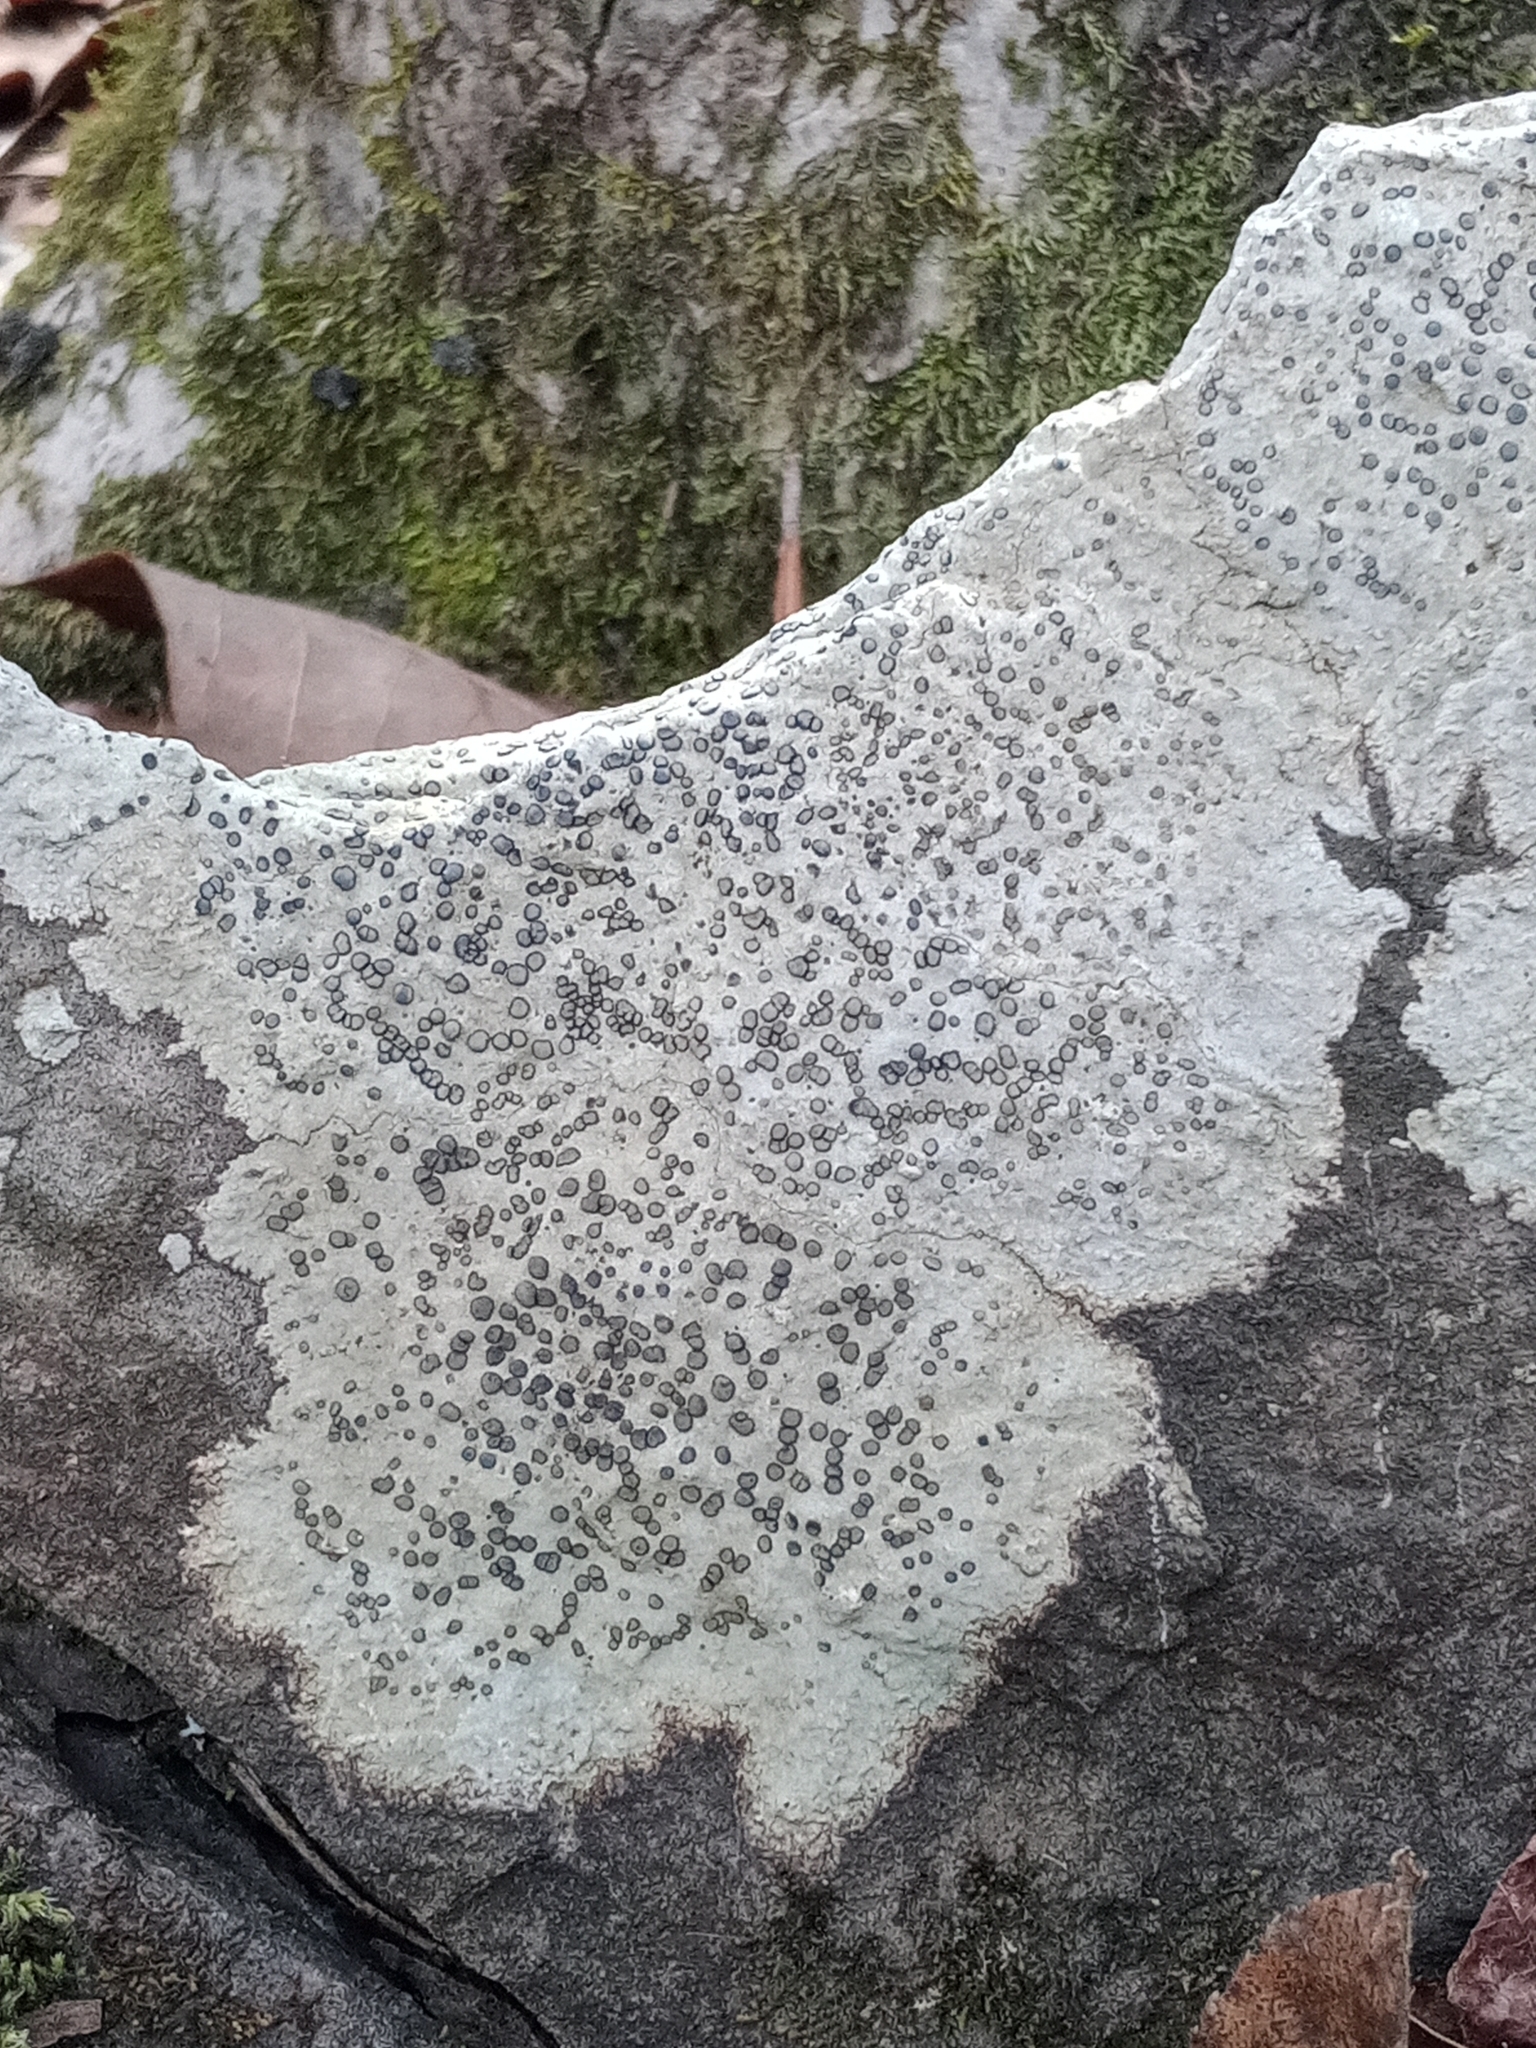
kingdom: Fungi
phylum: Ascomycota
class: Lecanoromycetes
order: Lecideales
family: Lecideaceae
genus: Porpidia
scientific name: Porpidia albocaerulescens
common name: Smokey-eyed boulder lichen
